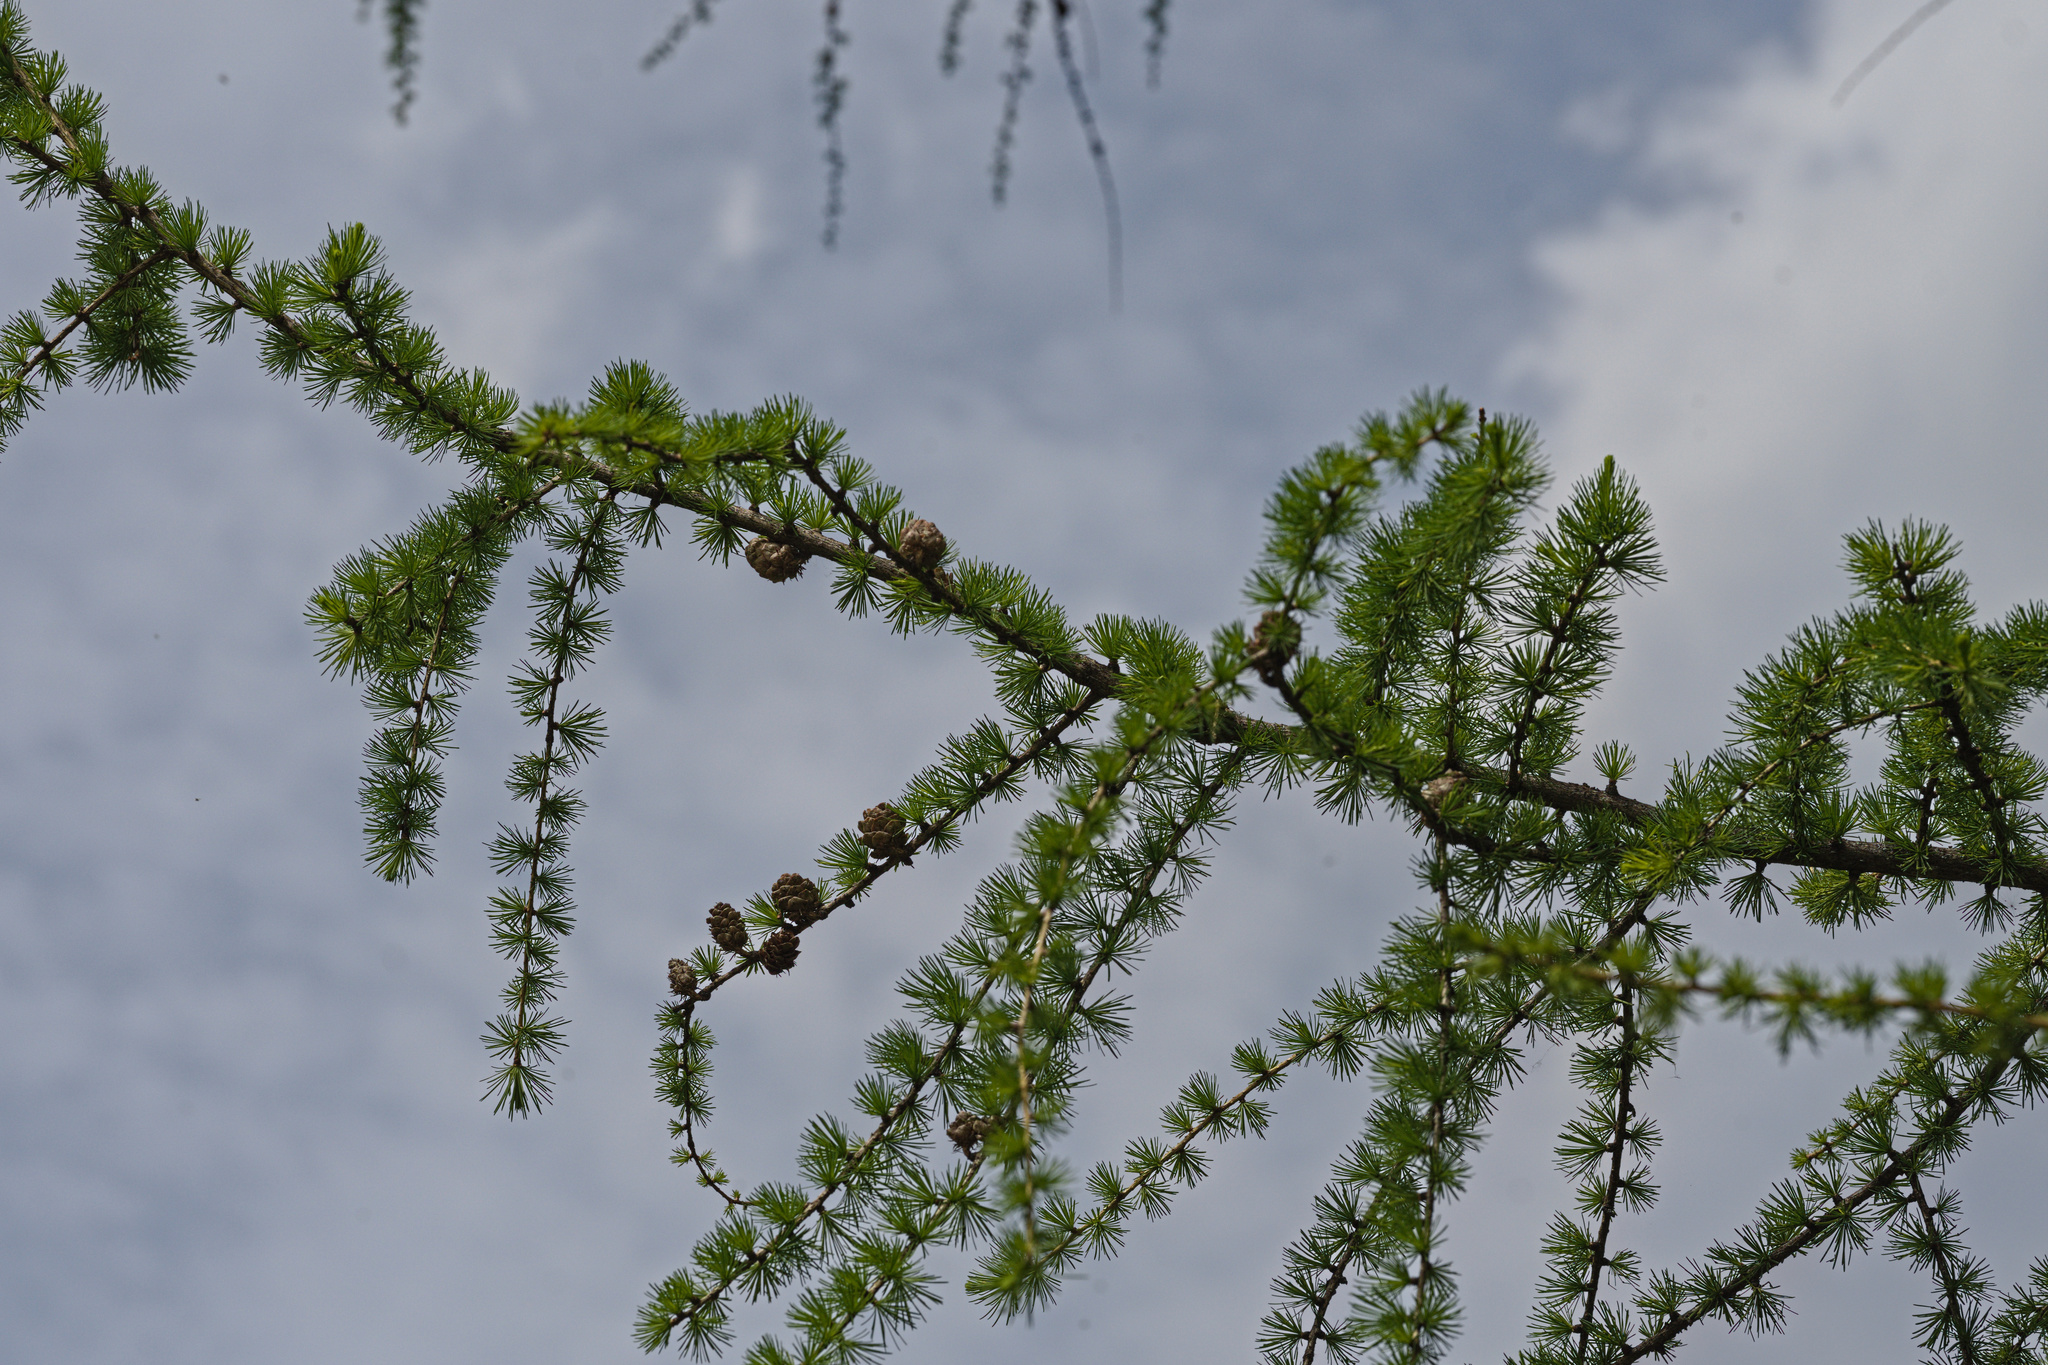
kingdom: Plantae
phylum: Tracheophyta
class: Pinopsida
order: Pinales
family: Pinaceae
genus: Larix
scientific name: Larix decidua
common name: European larch
